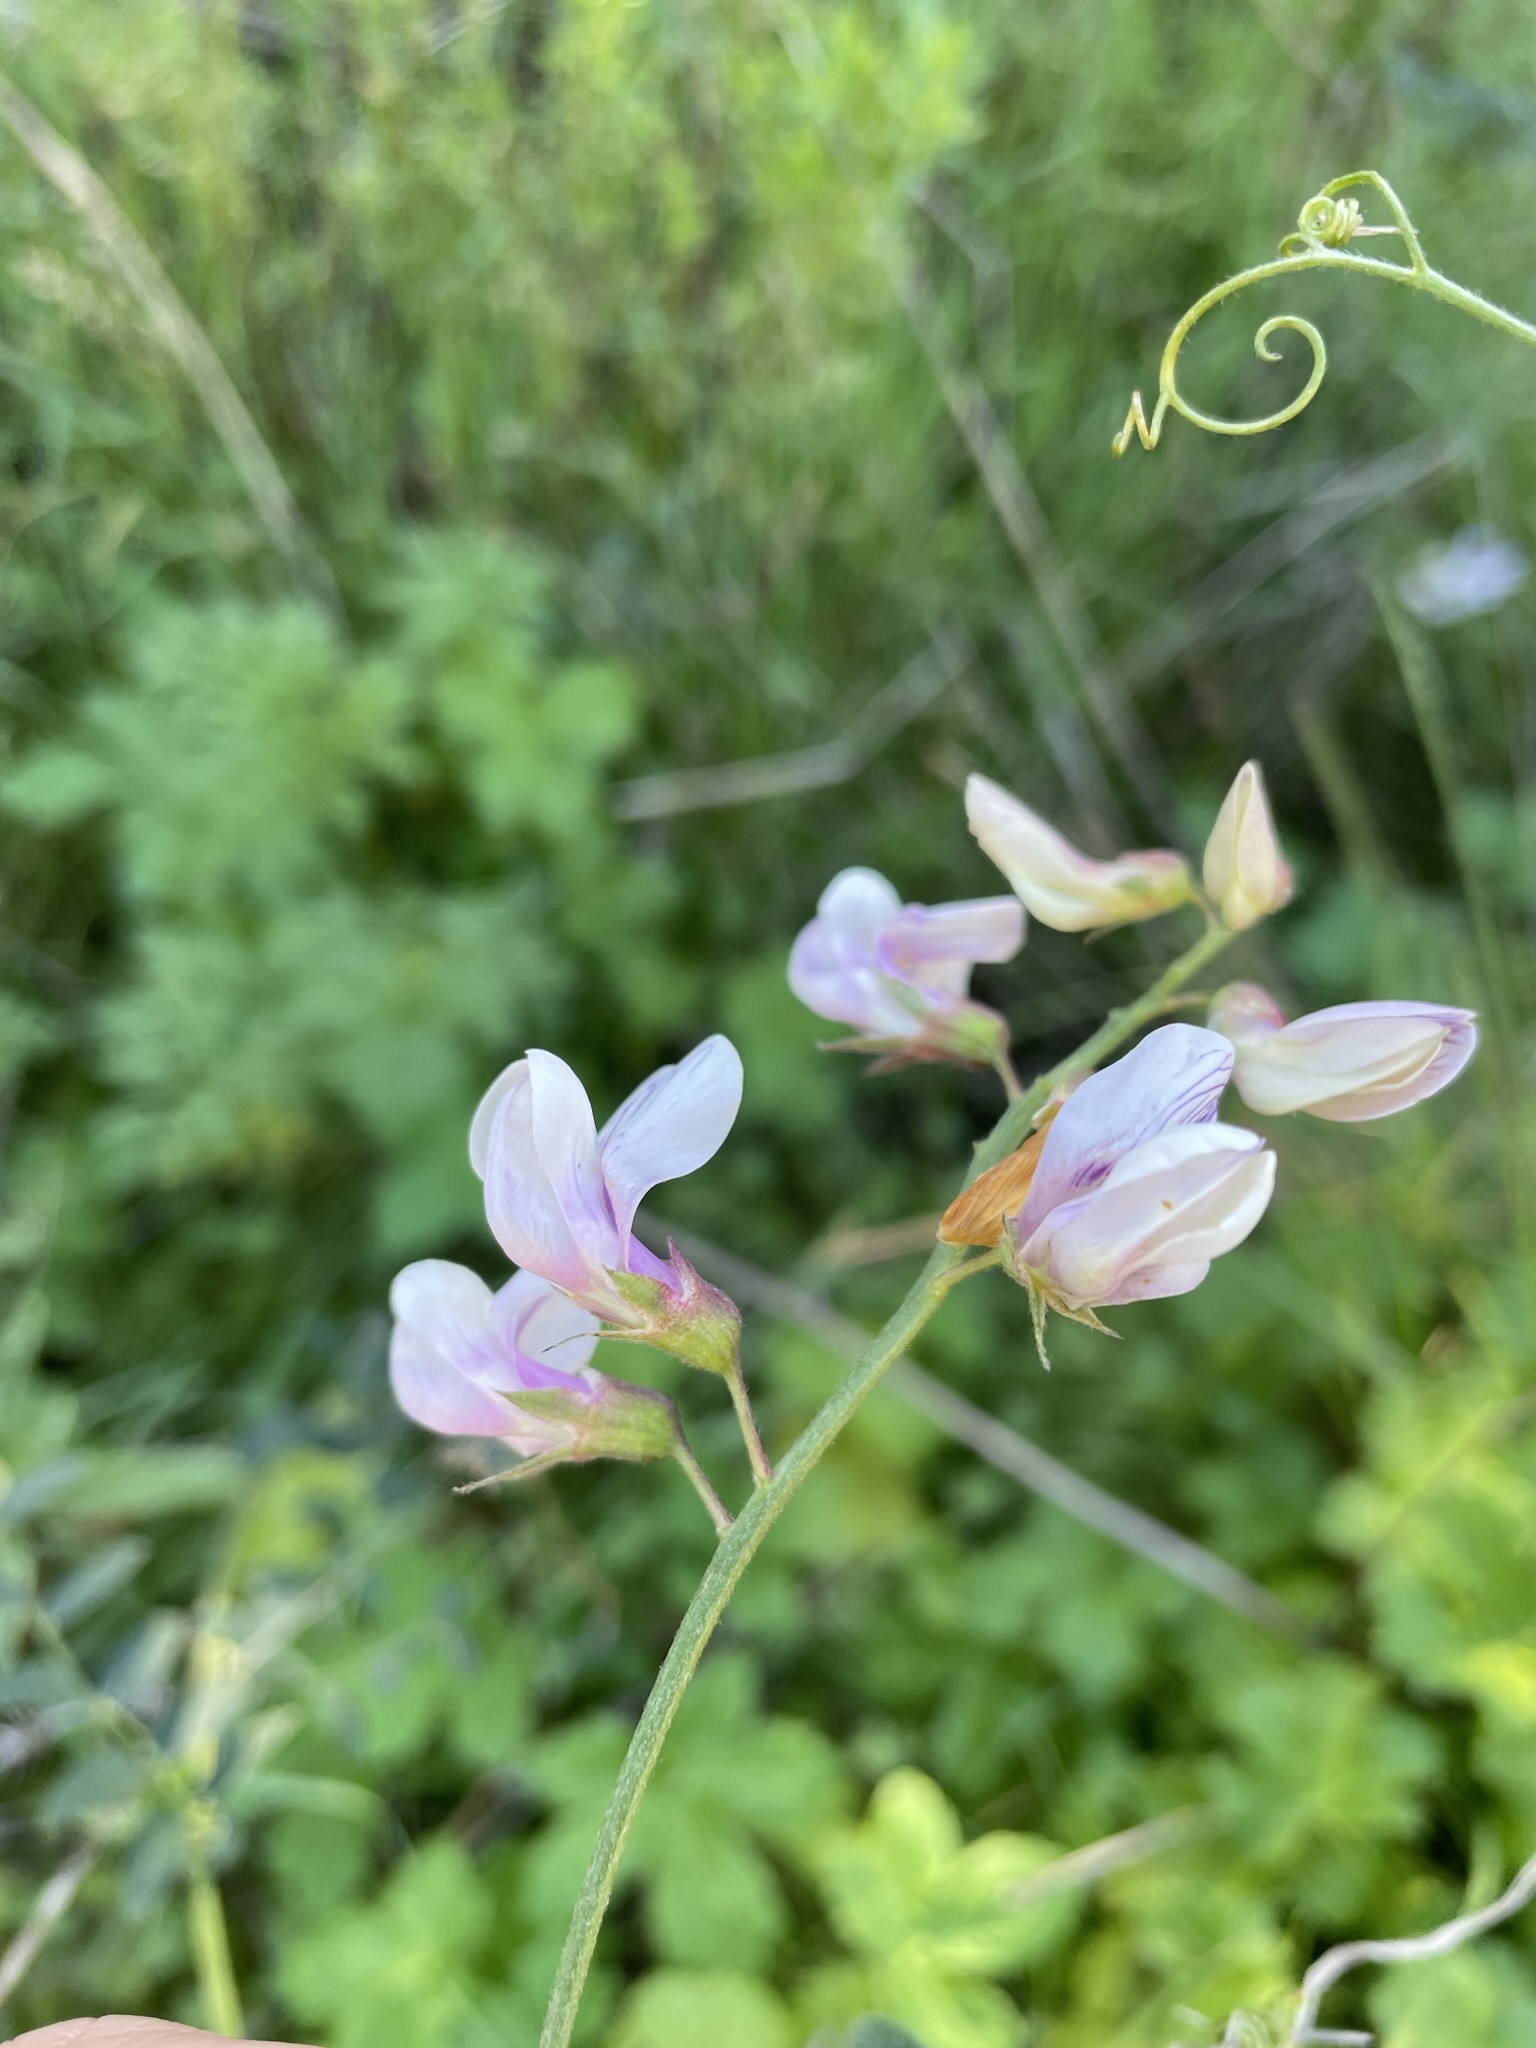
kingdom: Plantae
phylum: Tracheophyta
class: Magnoliopsida
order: Fabales
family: Fabaceae
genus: Lathyrus
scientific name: Lathyrus vestitus
